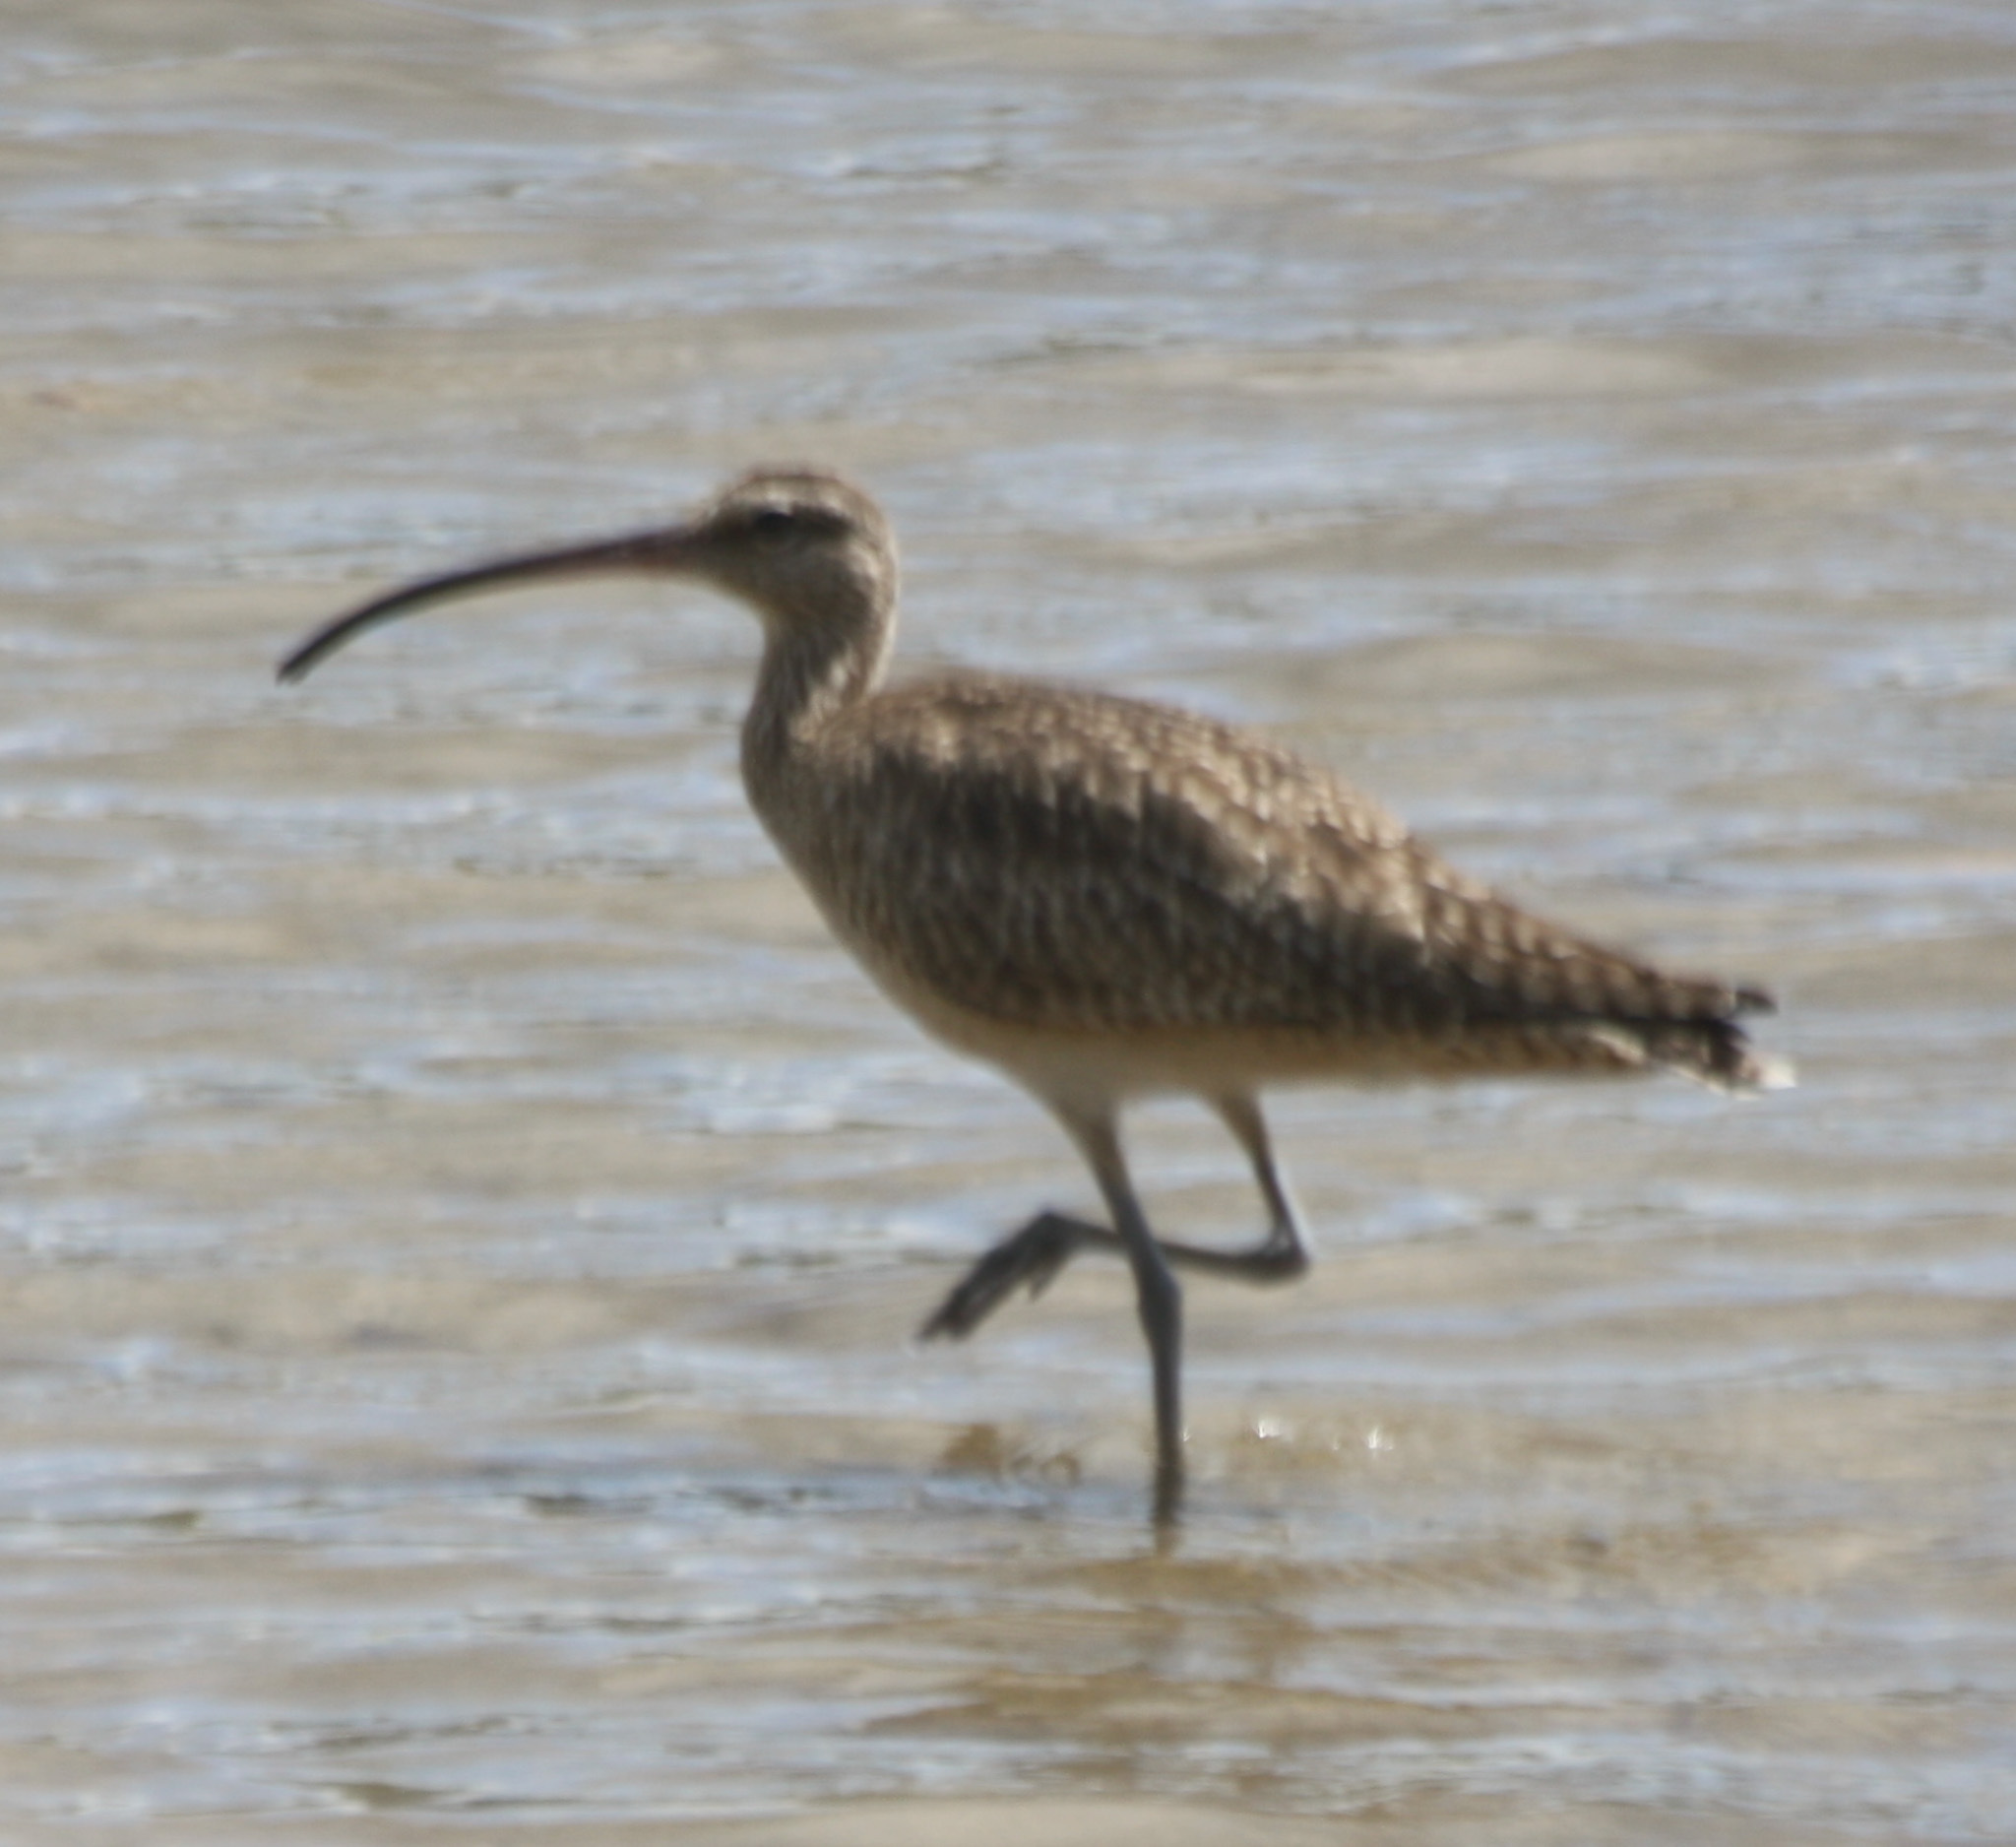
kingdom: Animalia
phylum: Chordata
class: Aves
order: Charadriiformes
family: Scolopacidae
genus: Numenius
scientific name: Numenius phaeopus
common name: Whimbrel
